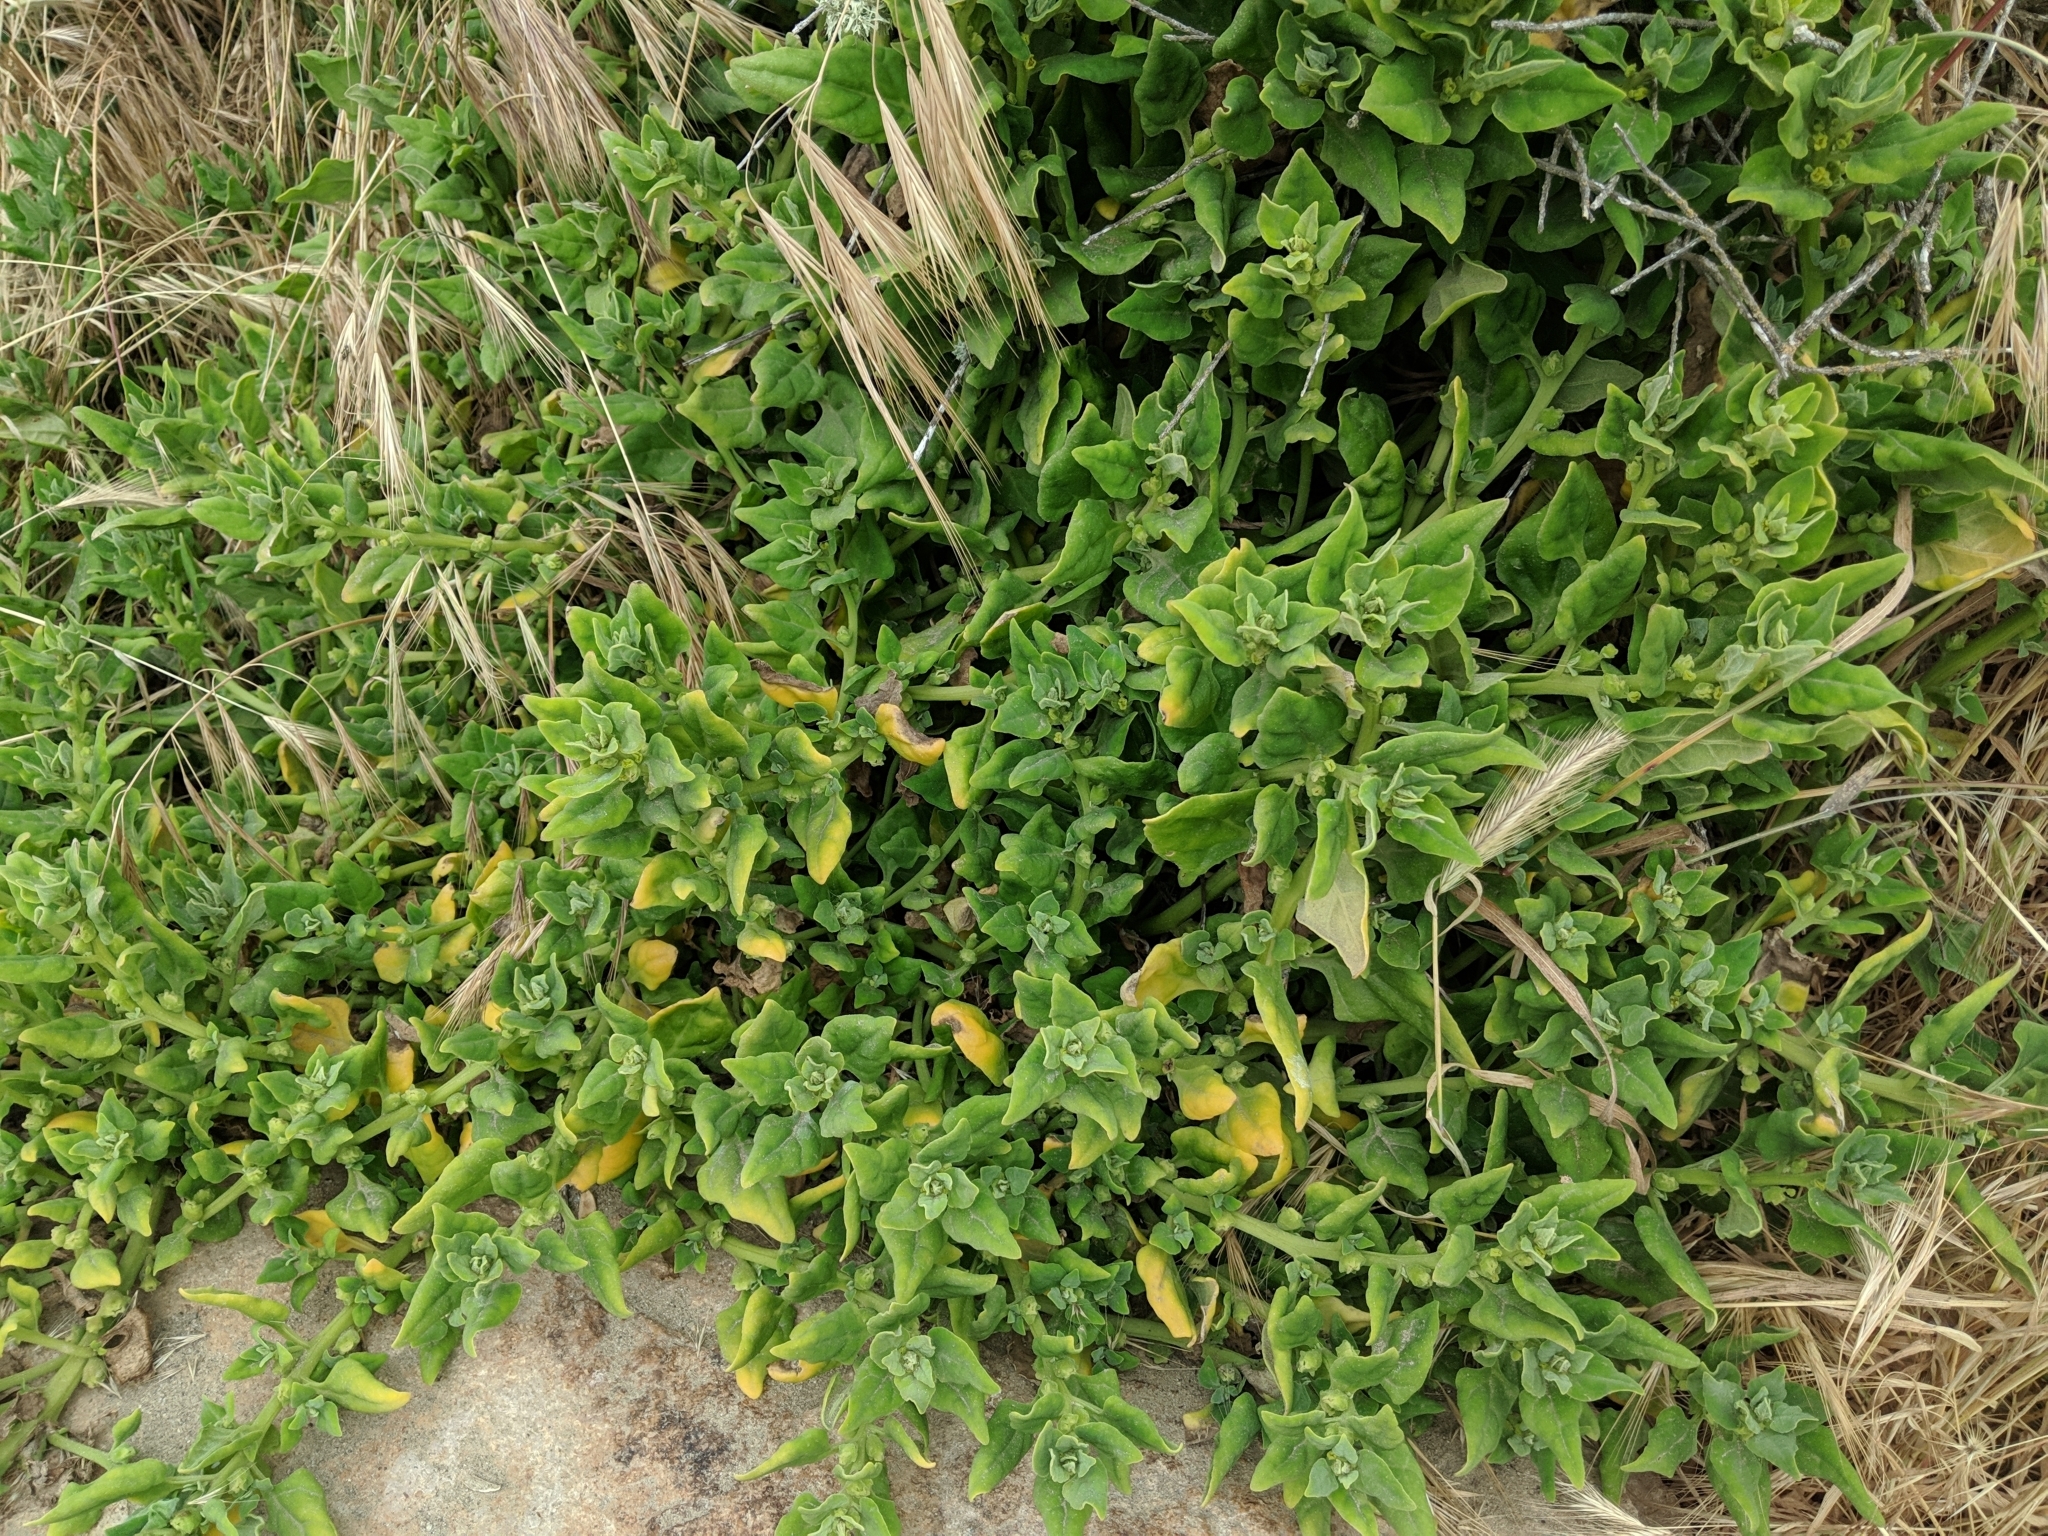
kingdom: Plantae
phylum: Tracheophyta
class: Magnoliopsida
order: Caryophyllales
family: Aizoaceae
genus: Tetragonia
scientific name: Tetragonia tetragonoides
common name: New zealand-spinach
